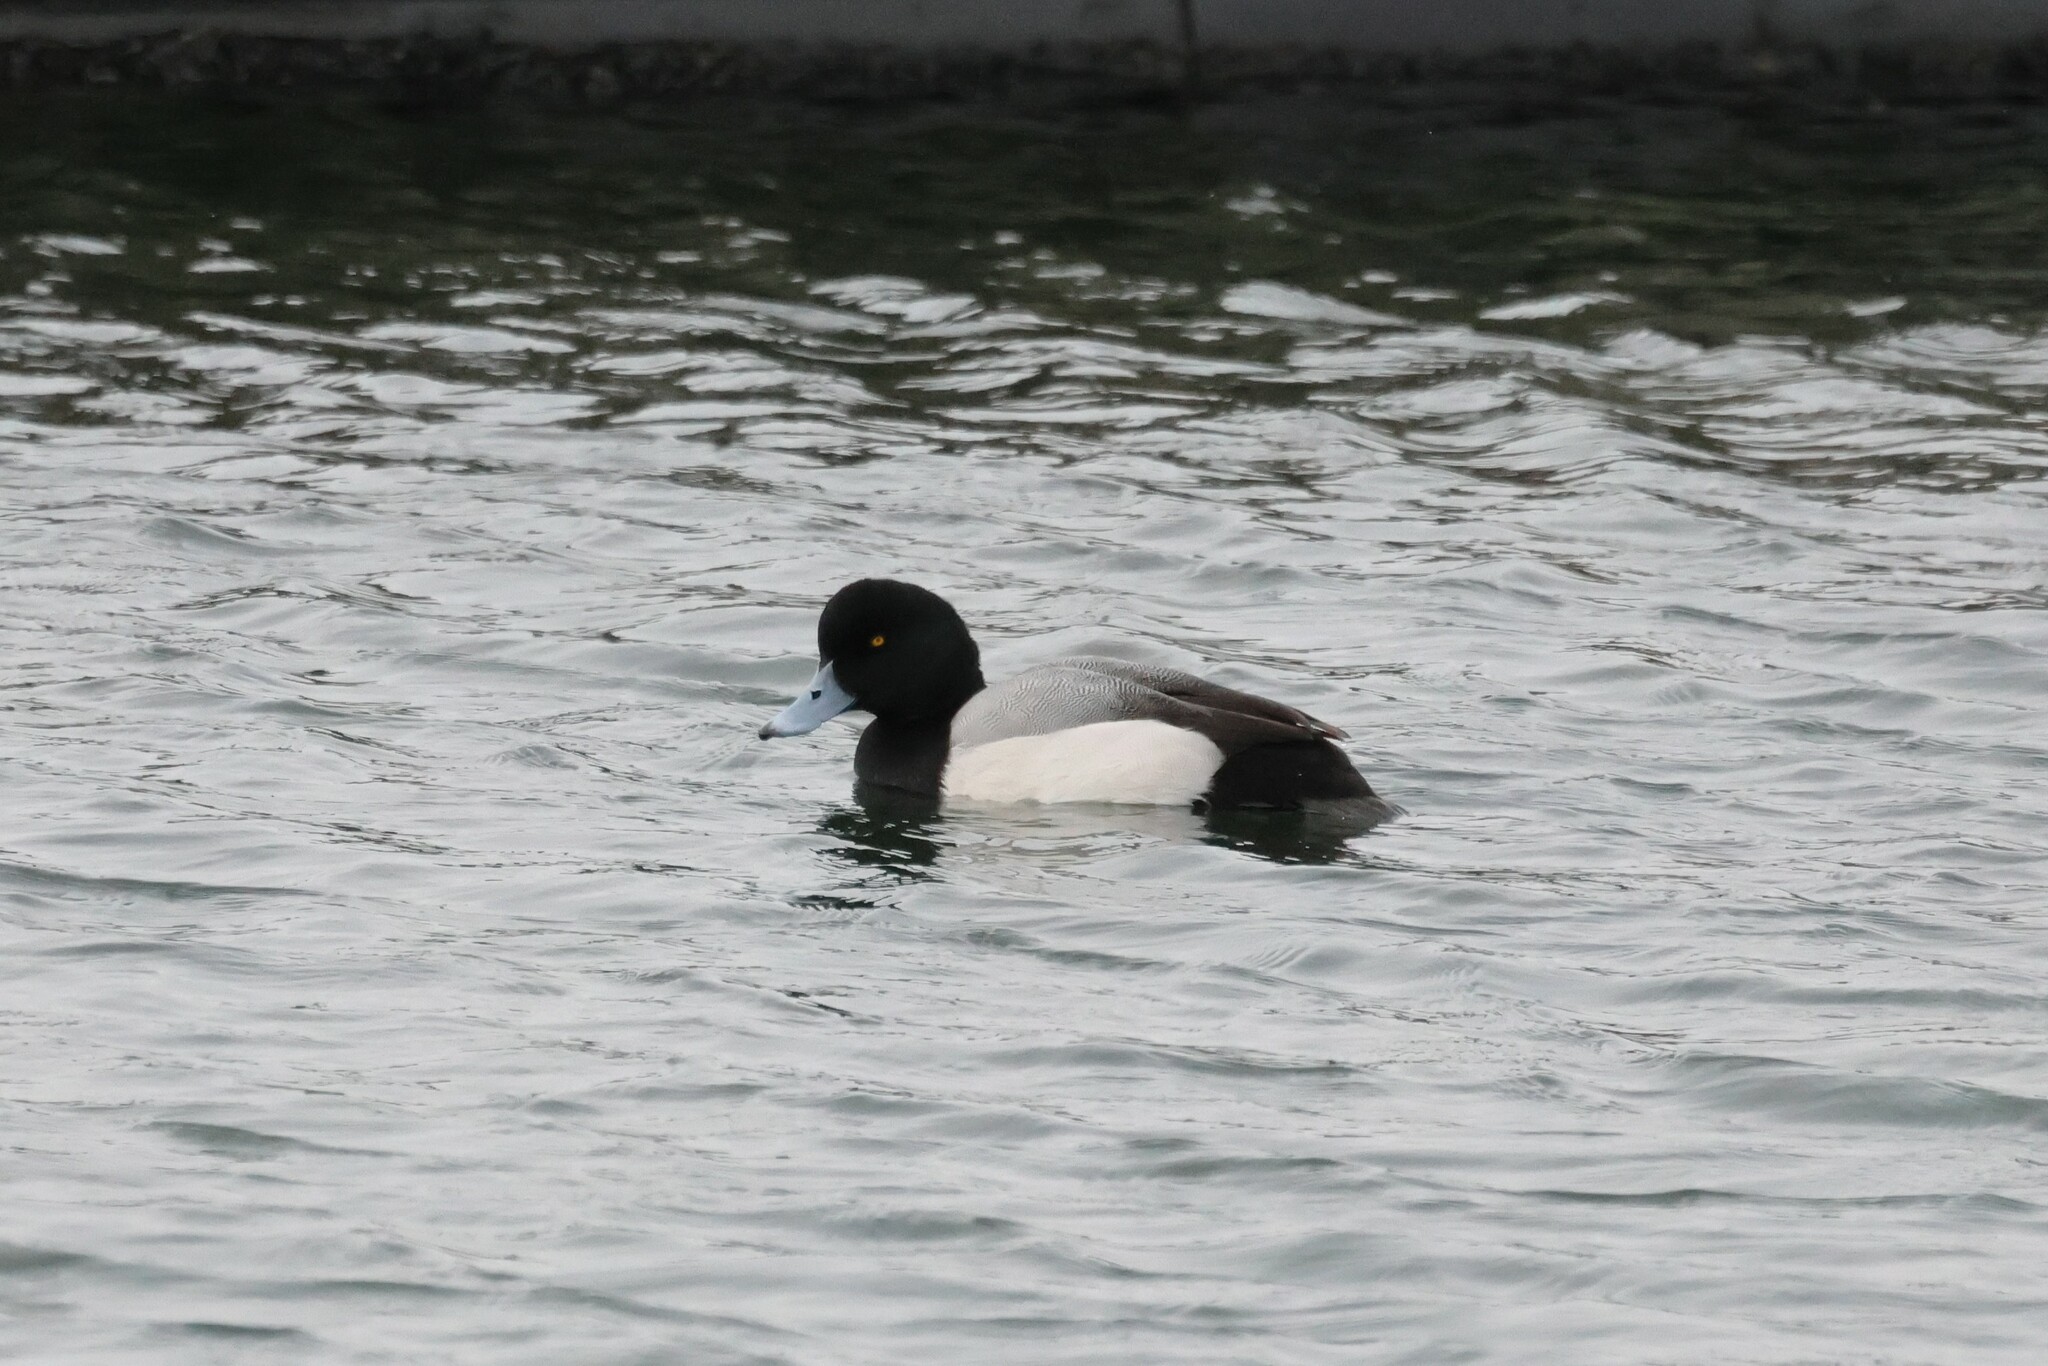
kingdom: Animalia
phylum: Chordata
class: Aves
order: Anseriformes
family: Anatidae
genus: Aythya
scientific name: Aythya marila
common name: Greater scaup
